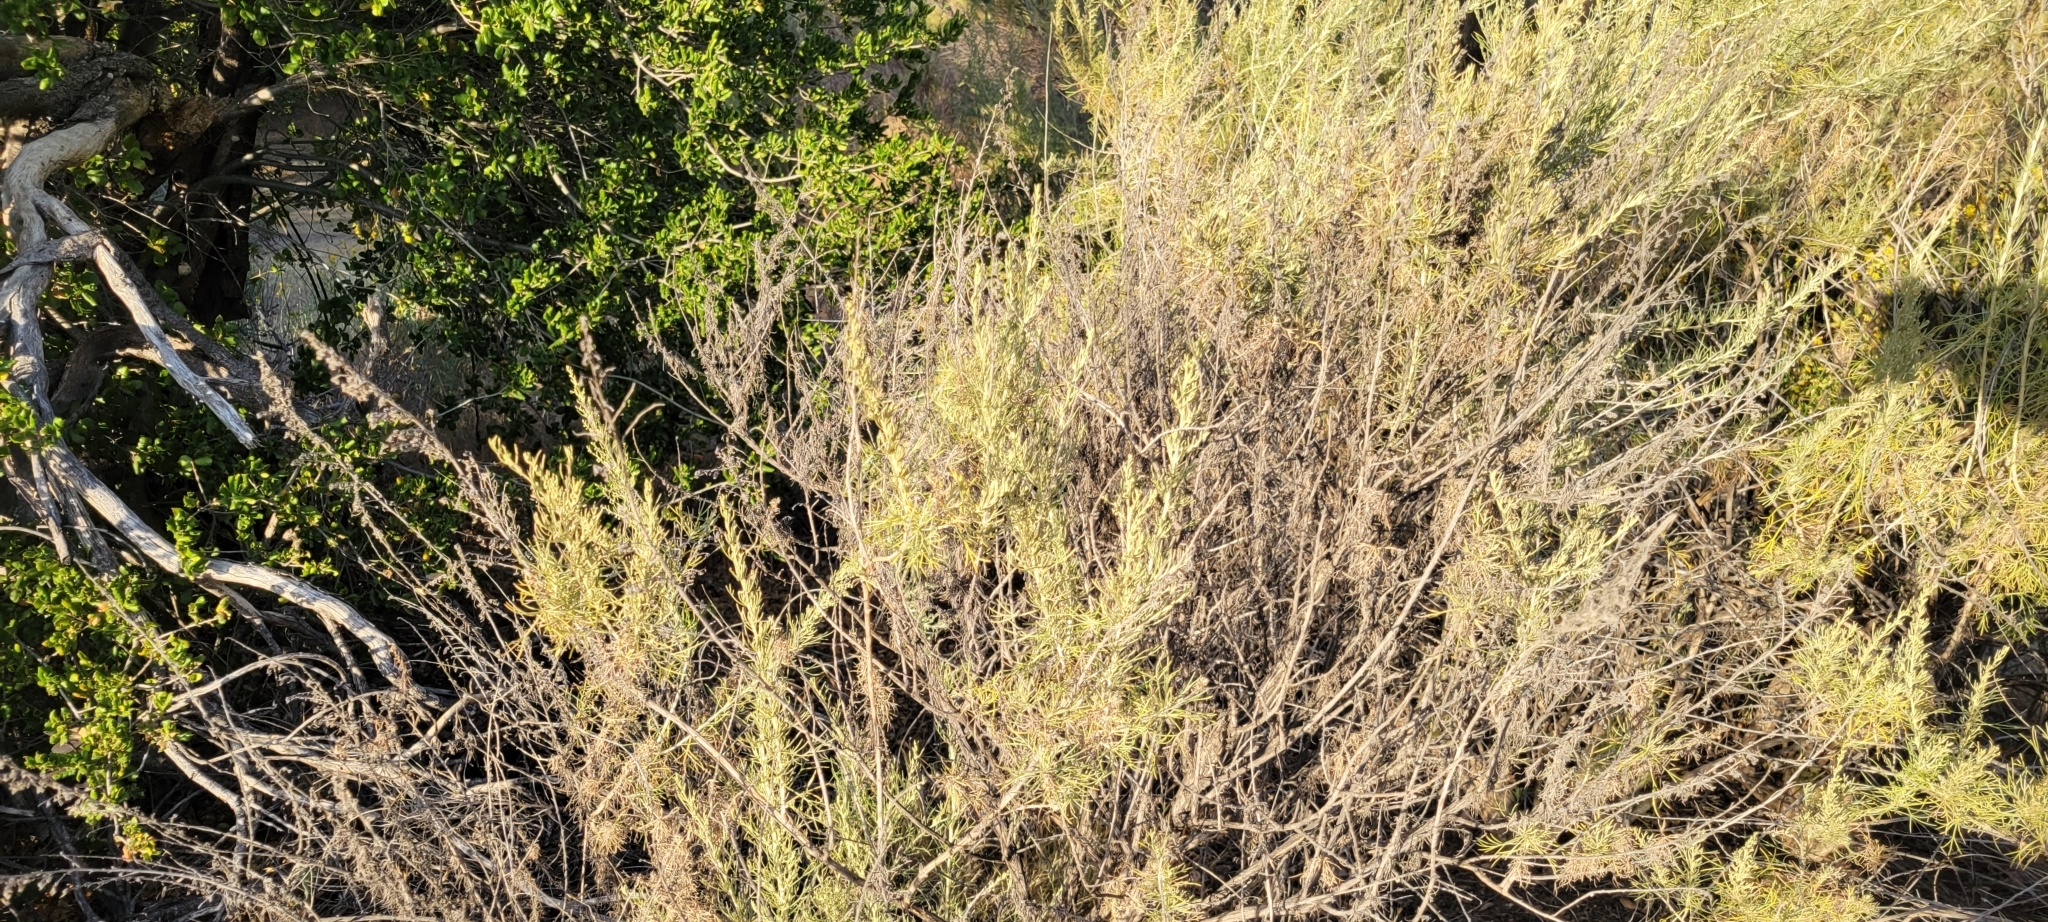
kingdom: Plantae
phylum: Tracheophyta
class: Magnoliopsida
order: Asterales
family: Asteraceae
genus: Artemisia
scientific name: Artemisia californica
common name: California sagebrush
